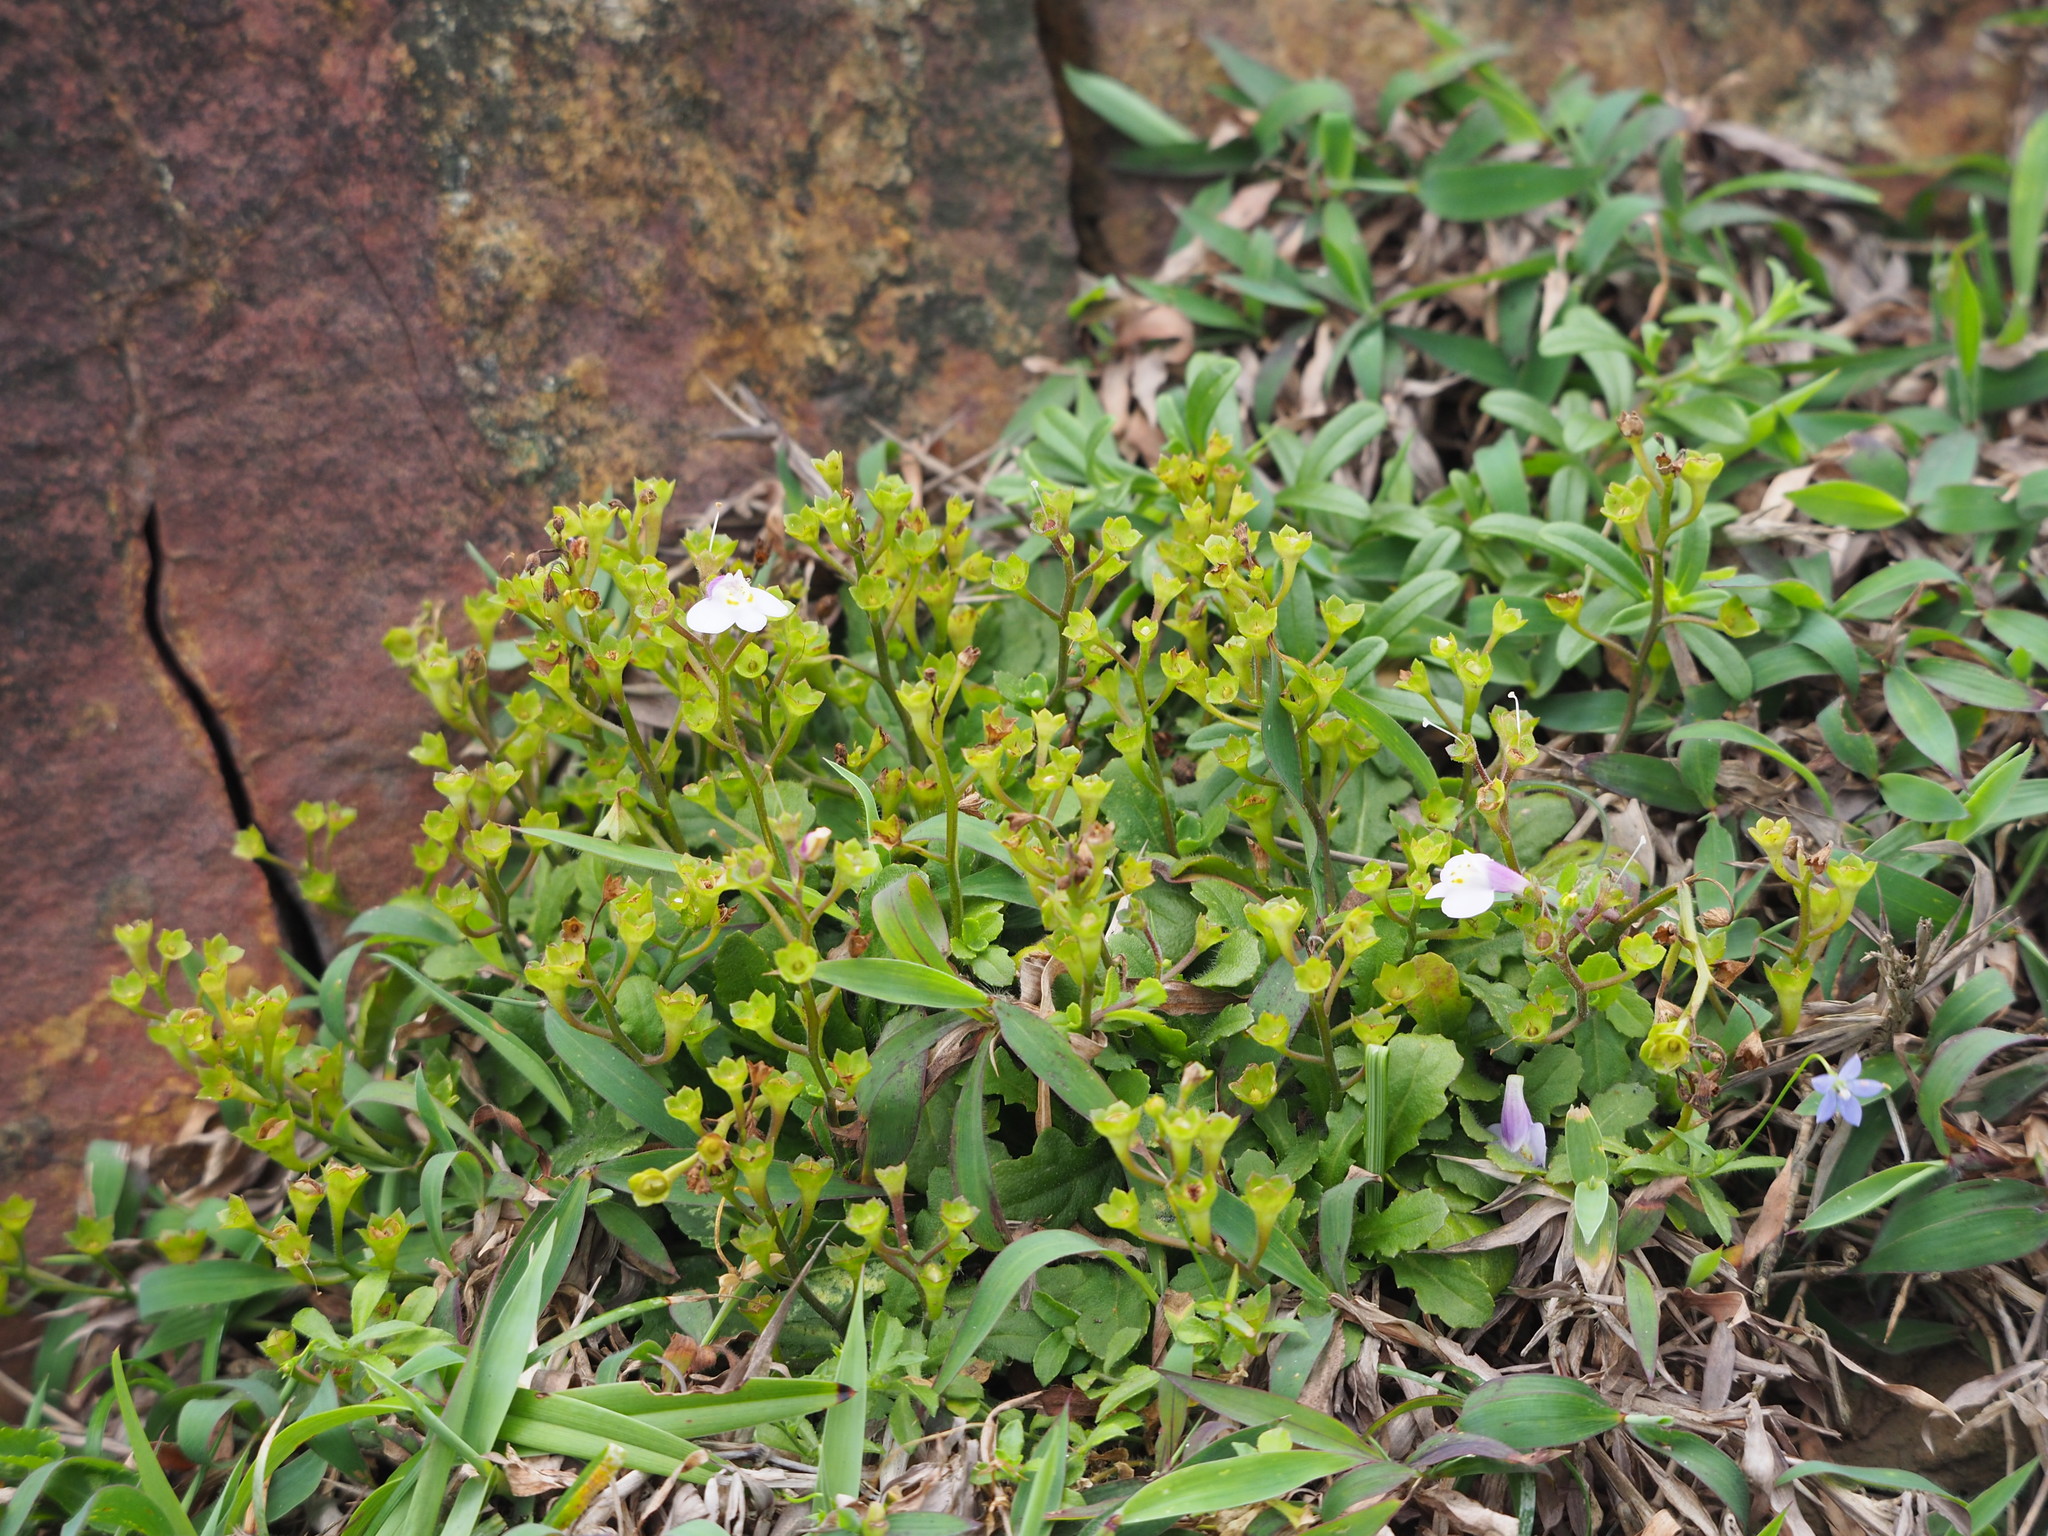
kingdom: Plantae
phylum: Tracheophyta
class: Magnoliopsida
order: Lamiales
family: Mazaceae
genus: Mazus
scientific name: Mazus fauriei
